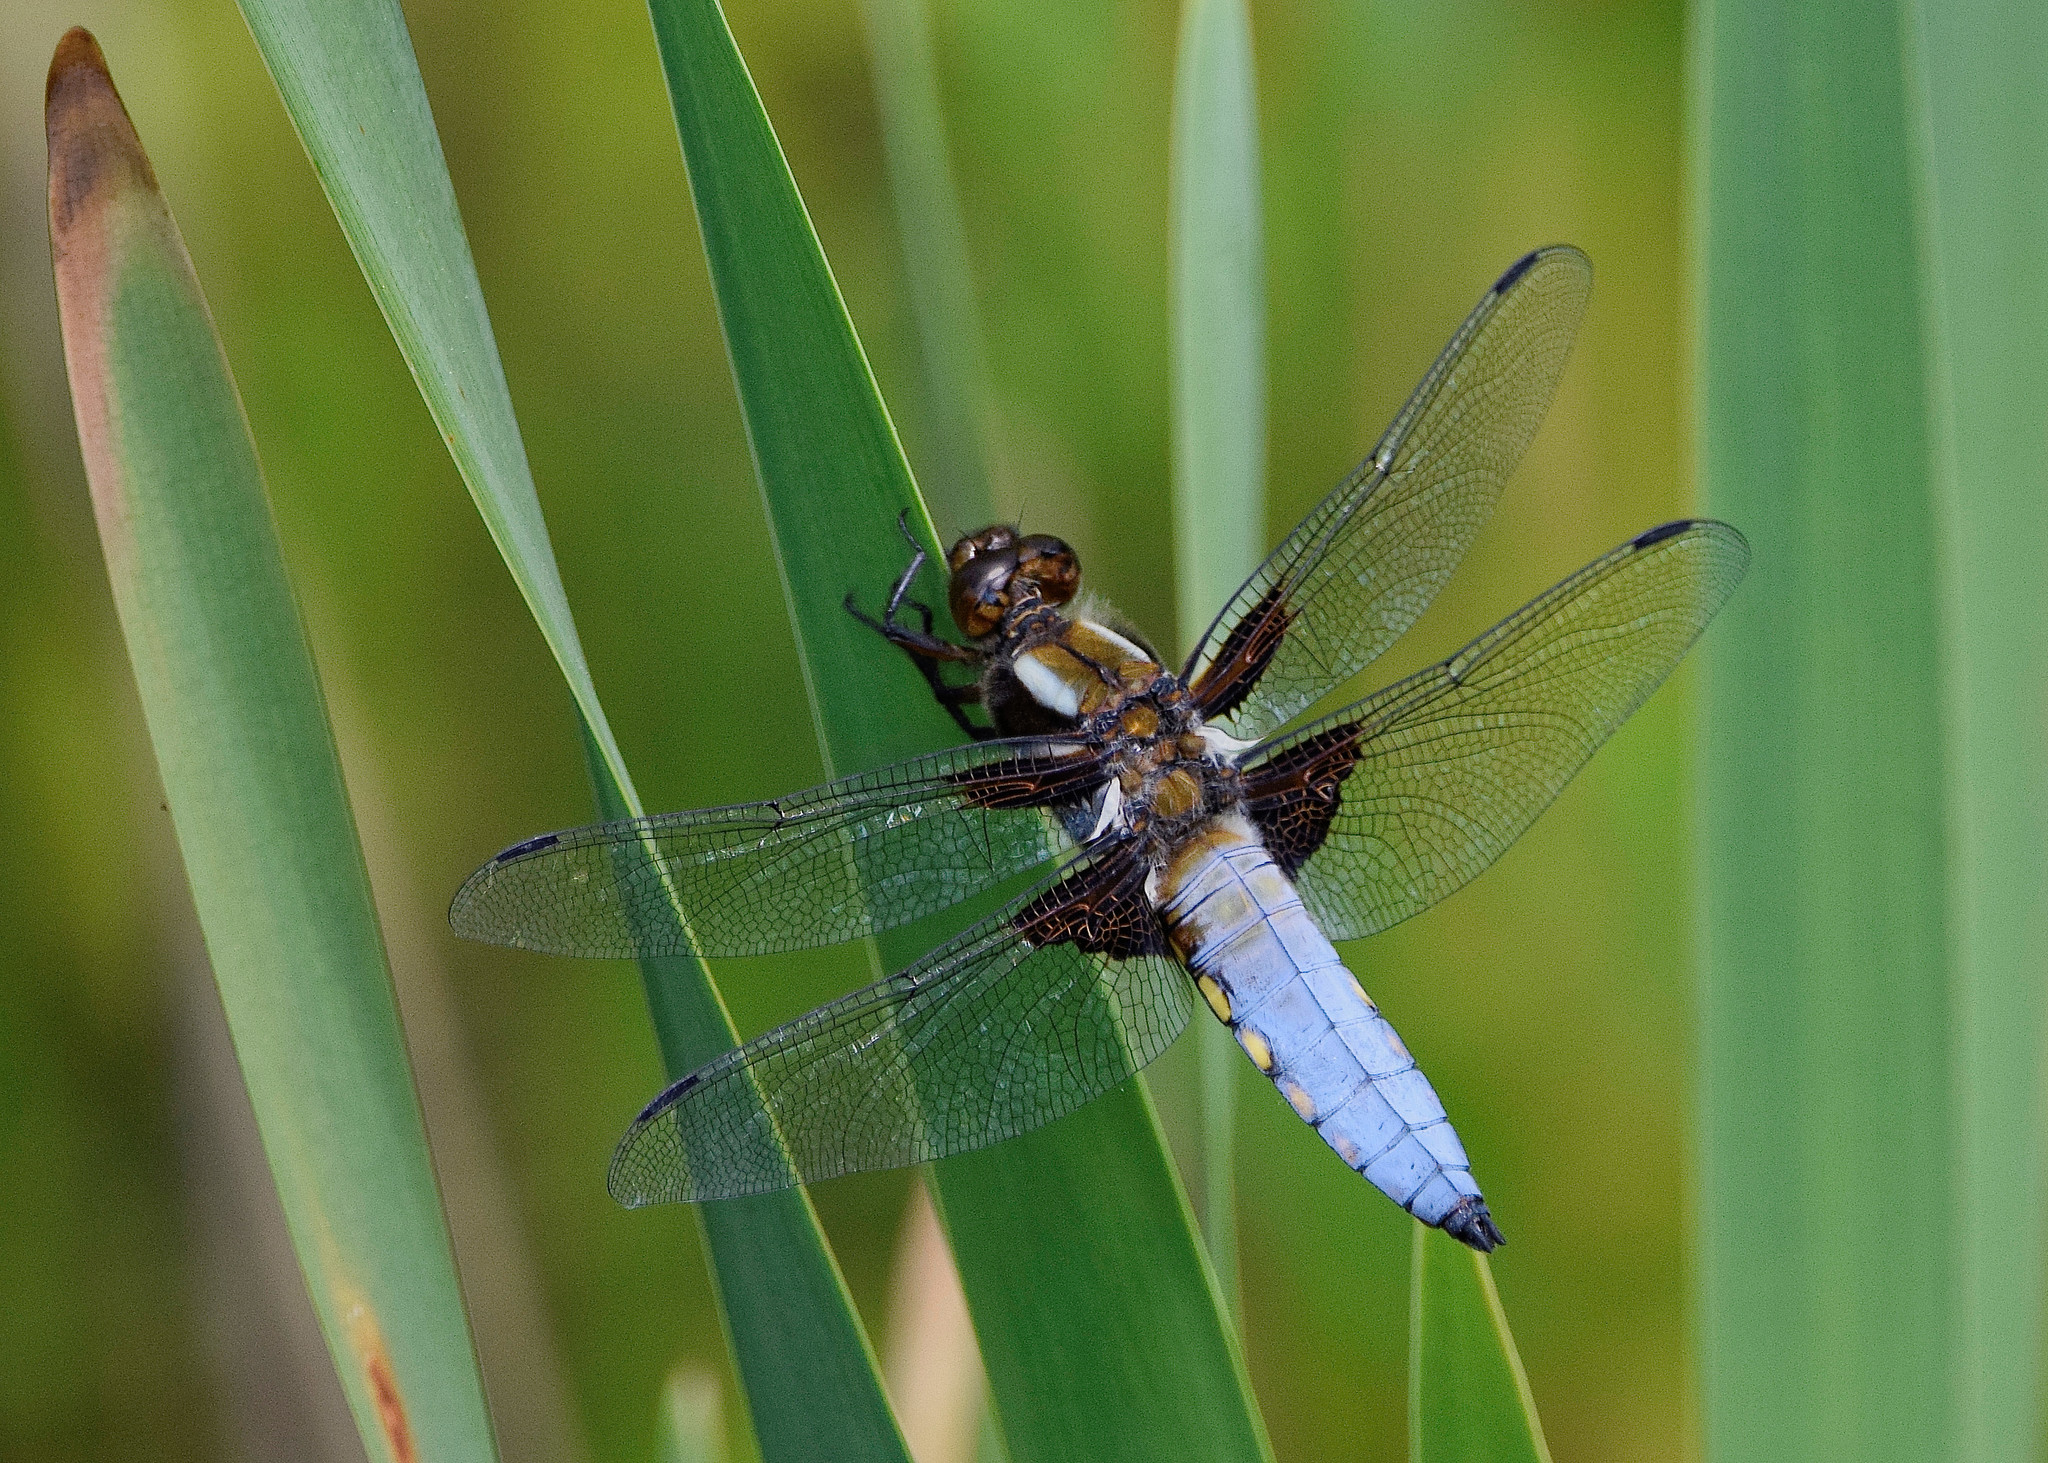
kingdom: Animalia
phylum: Arthropoda
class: Insecta
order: Odonata
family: Libellulidae
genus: Libellula
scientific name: Libellula depressa
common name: Broad-bodied chaser
